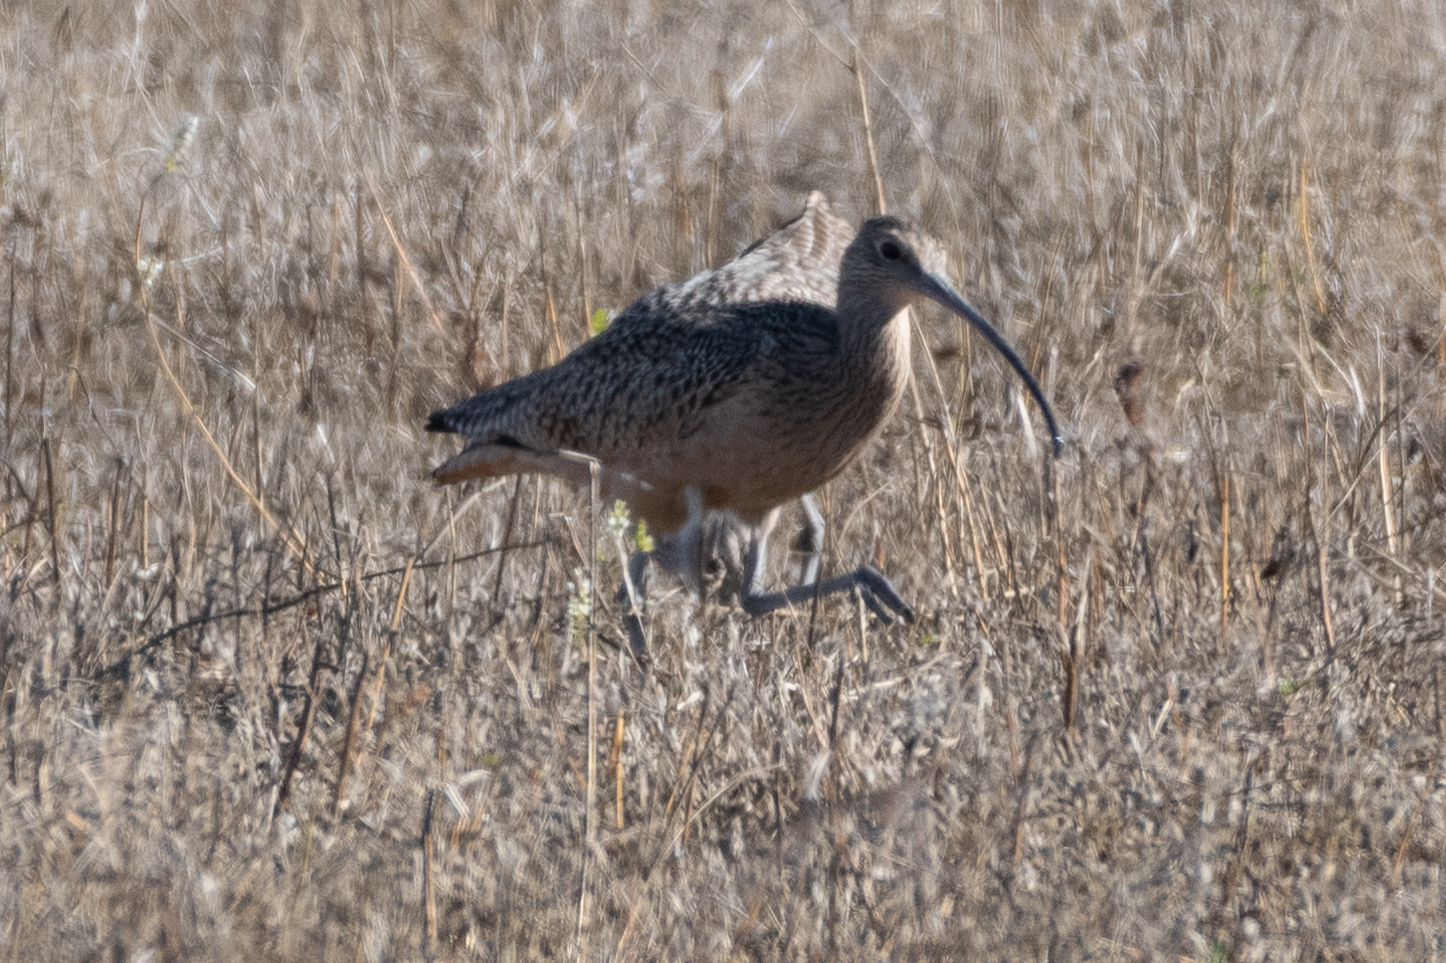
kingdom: Animalia
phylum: Chordata
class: Aves
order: Charadriiformes
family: Scolopacidae
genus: Numenius
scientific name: Numenius americanus
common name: Long-billed curlew
